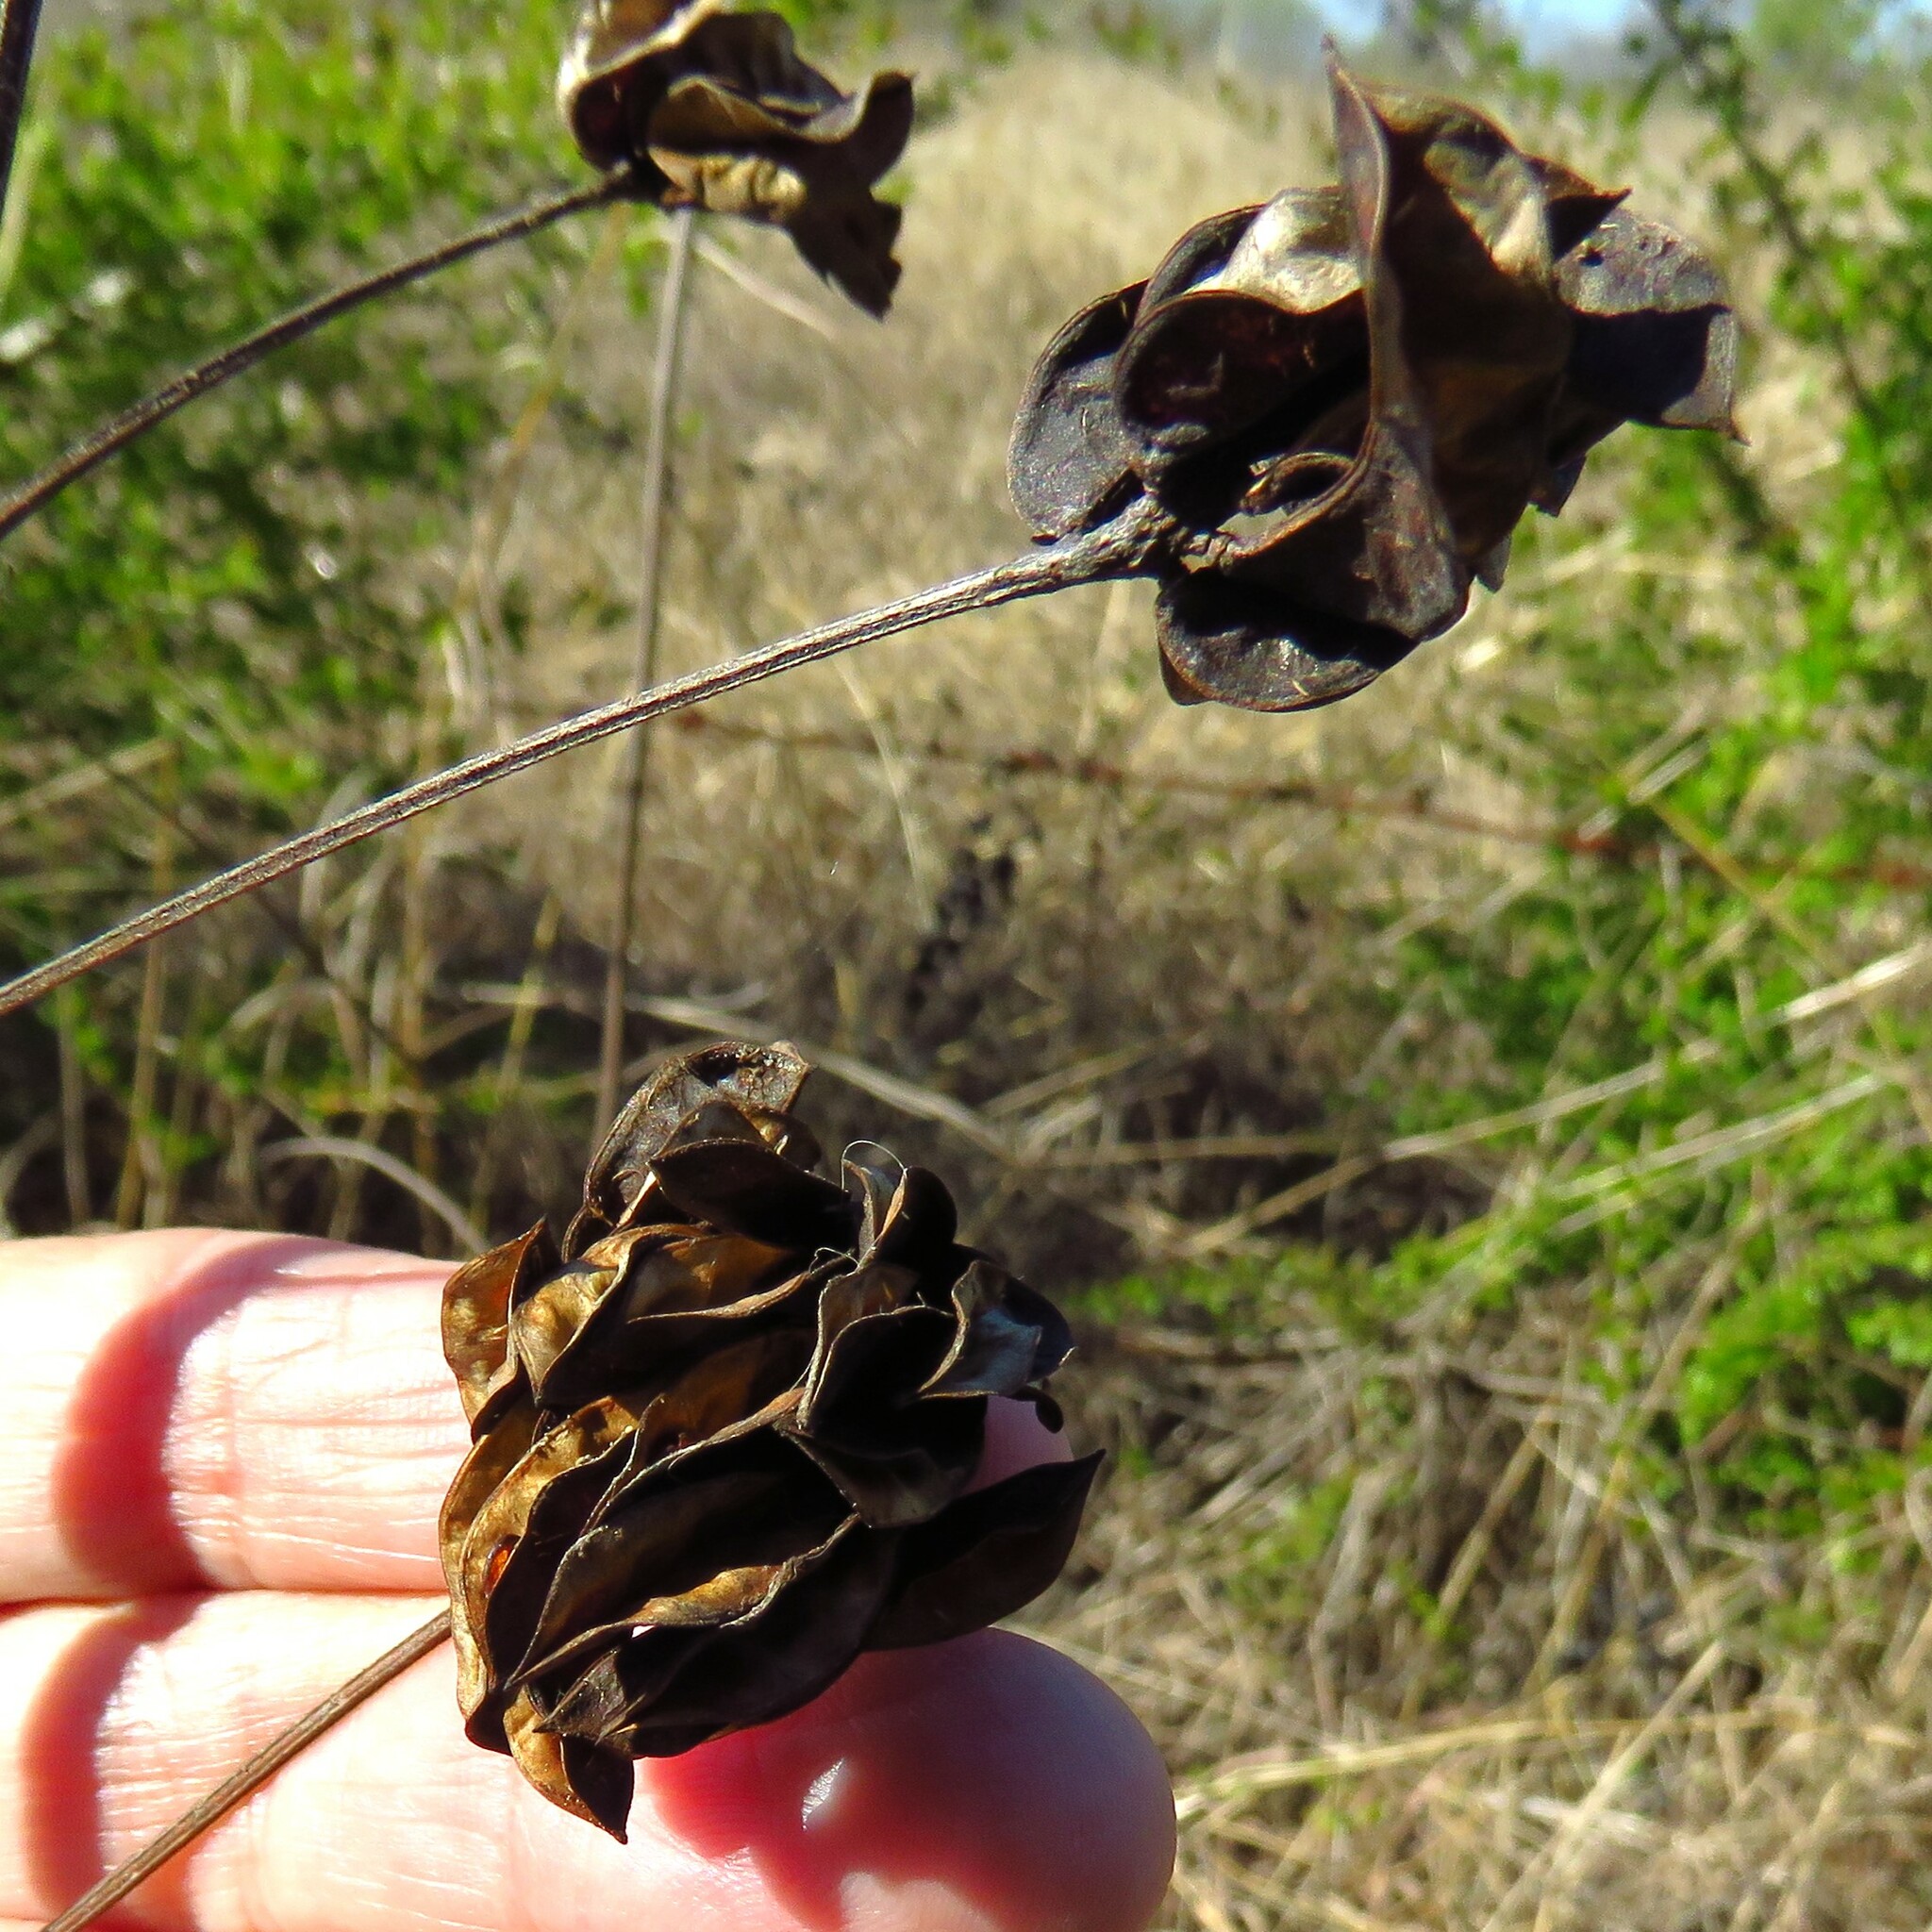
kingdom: Plantae
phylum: Tracheophyta
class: Magnoliopsida
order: Fabales
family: Fabaceae
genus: Desmanthus
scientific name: Desmanthus illinoensis
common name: Illinois bundle-flower
